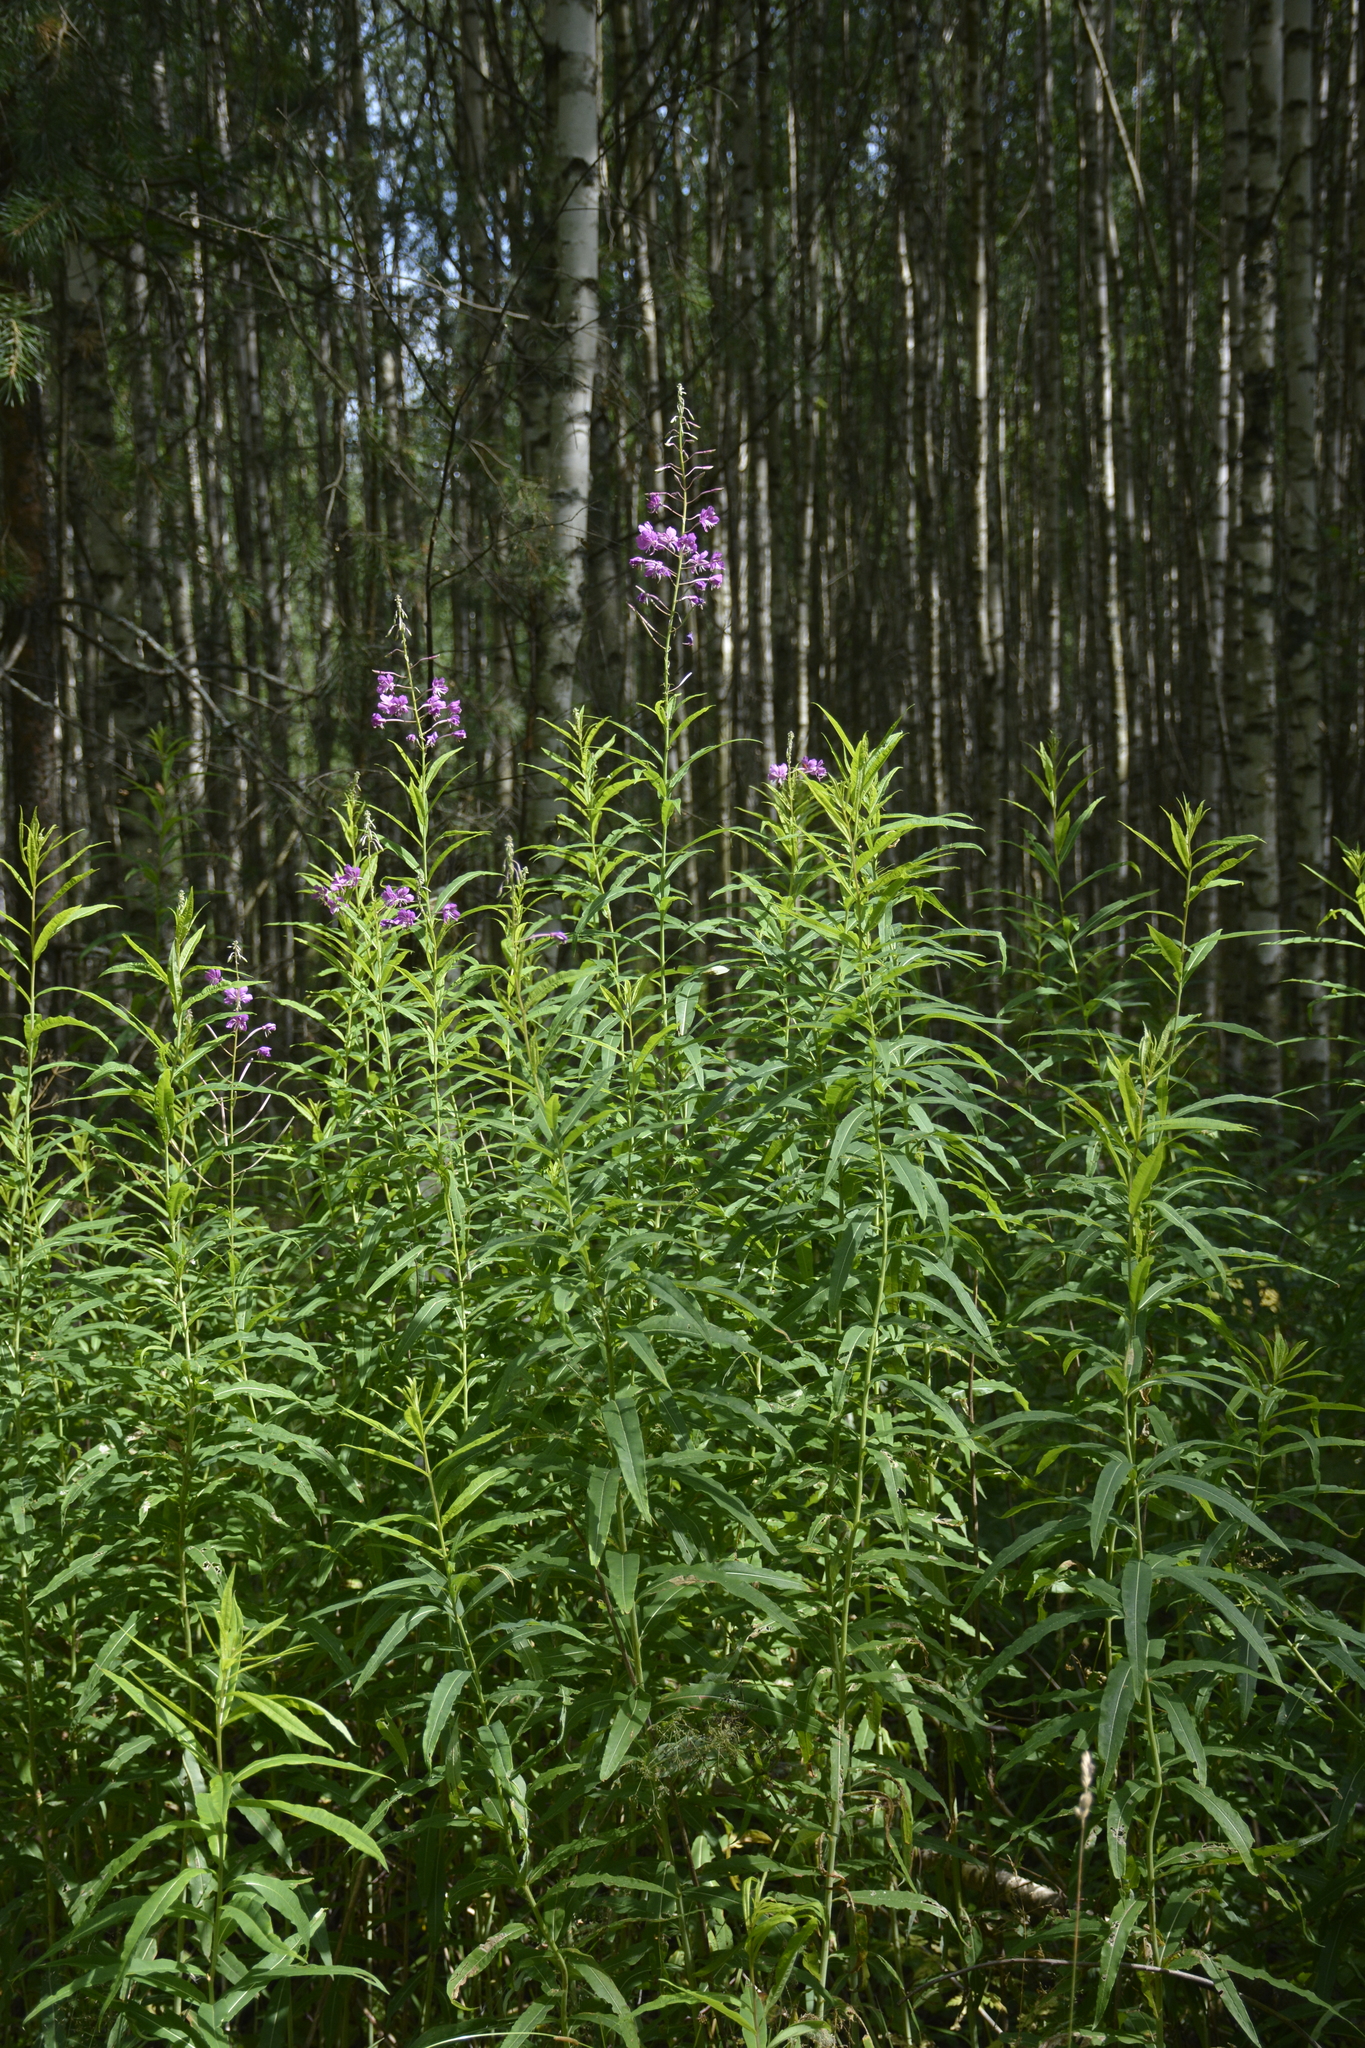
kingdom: Plantae
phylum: Tracheophyta
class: Magnoliopsida
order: Myrtales
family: Onagraceae
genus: Chamaenerion
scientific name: Chamaenerion angustifolium
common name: Fireweed
